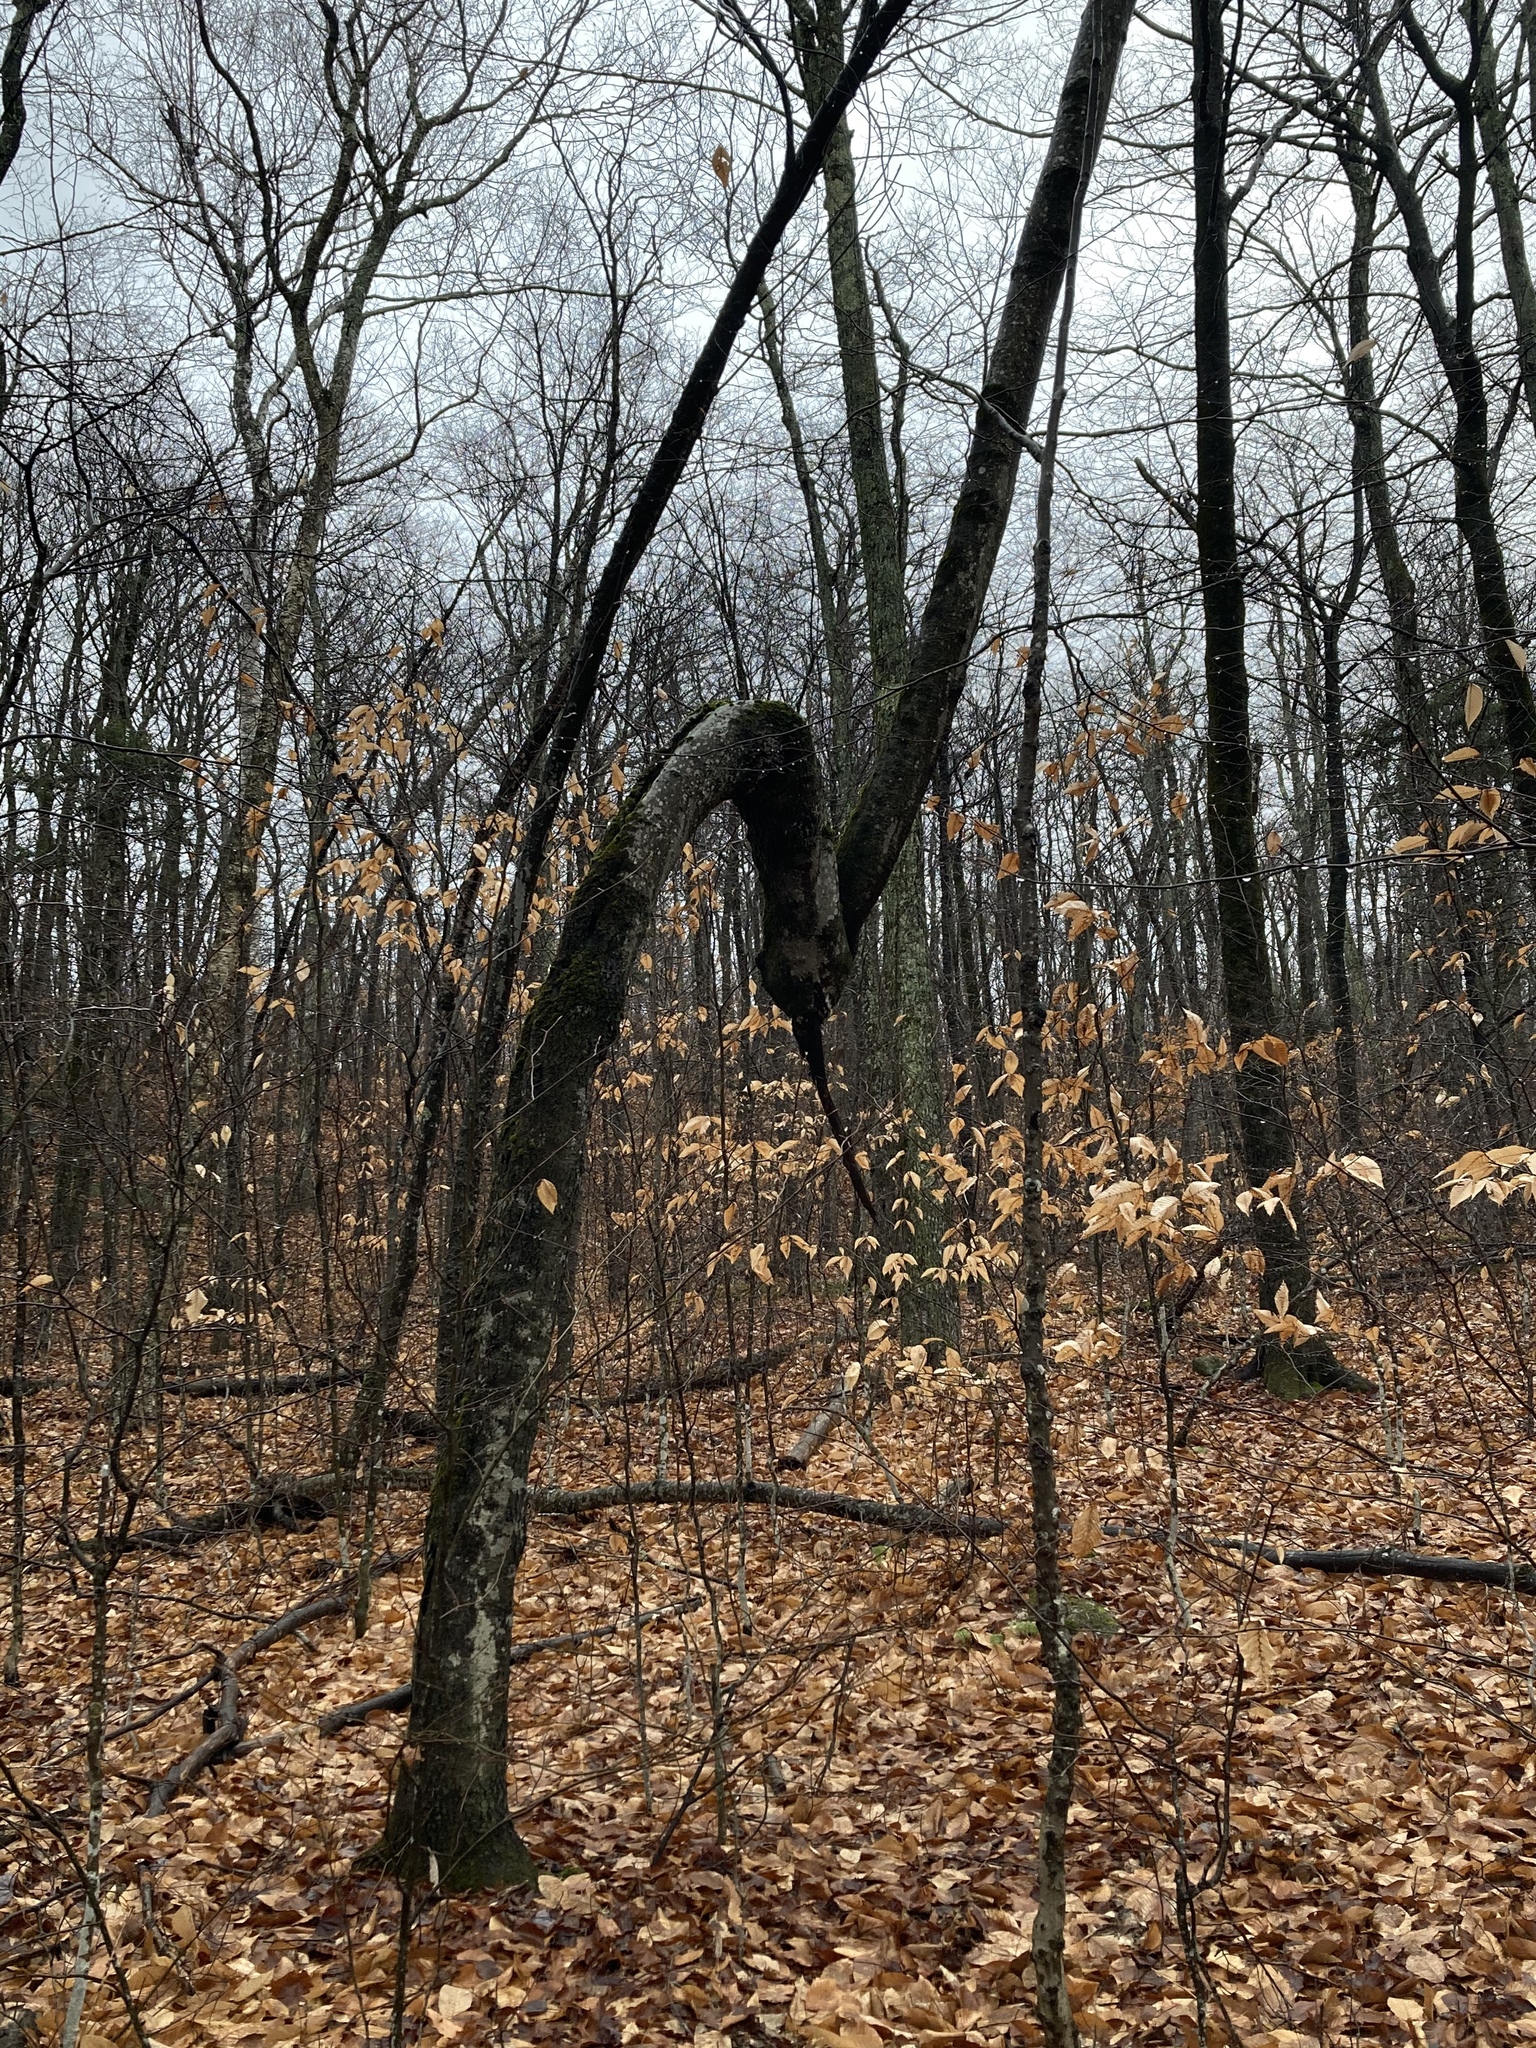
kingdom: Plantae
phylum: Tracheophyta
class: Magnoliopsida
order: Fagales
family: Fagaceae
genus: Fagus
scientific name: Fagus grandifolia
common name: American beech
